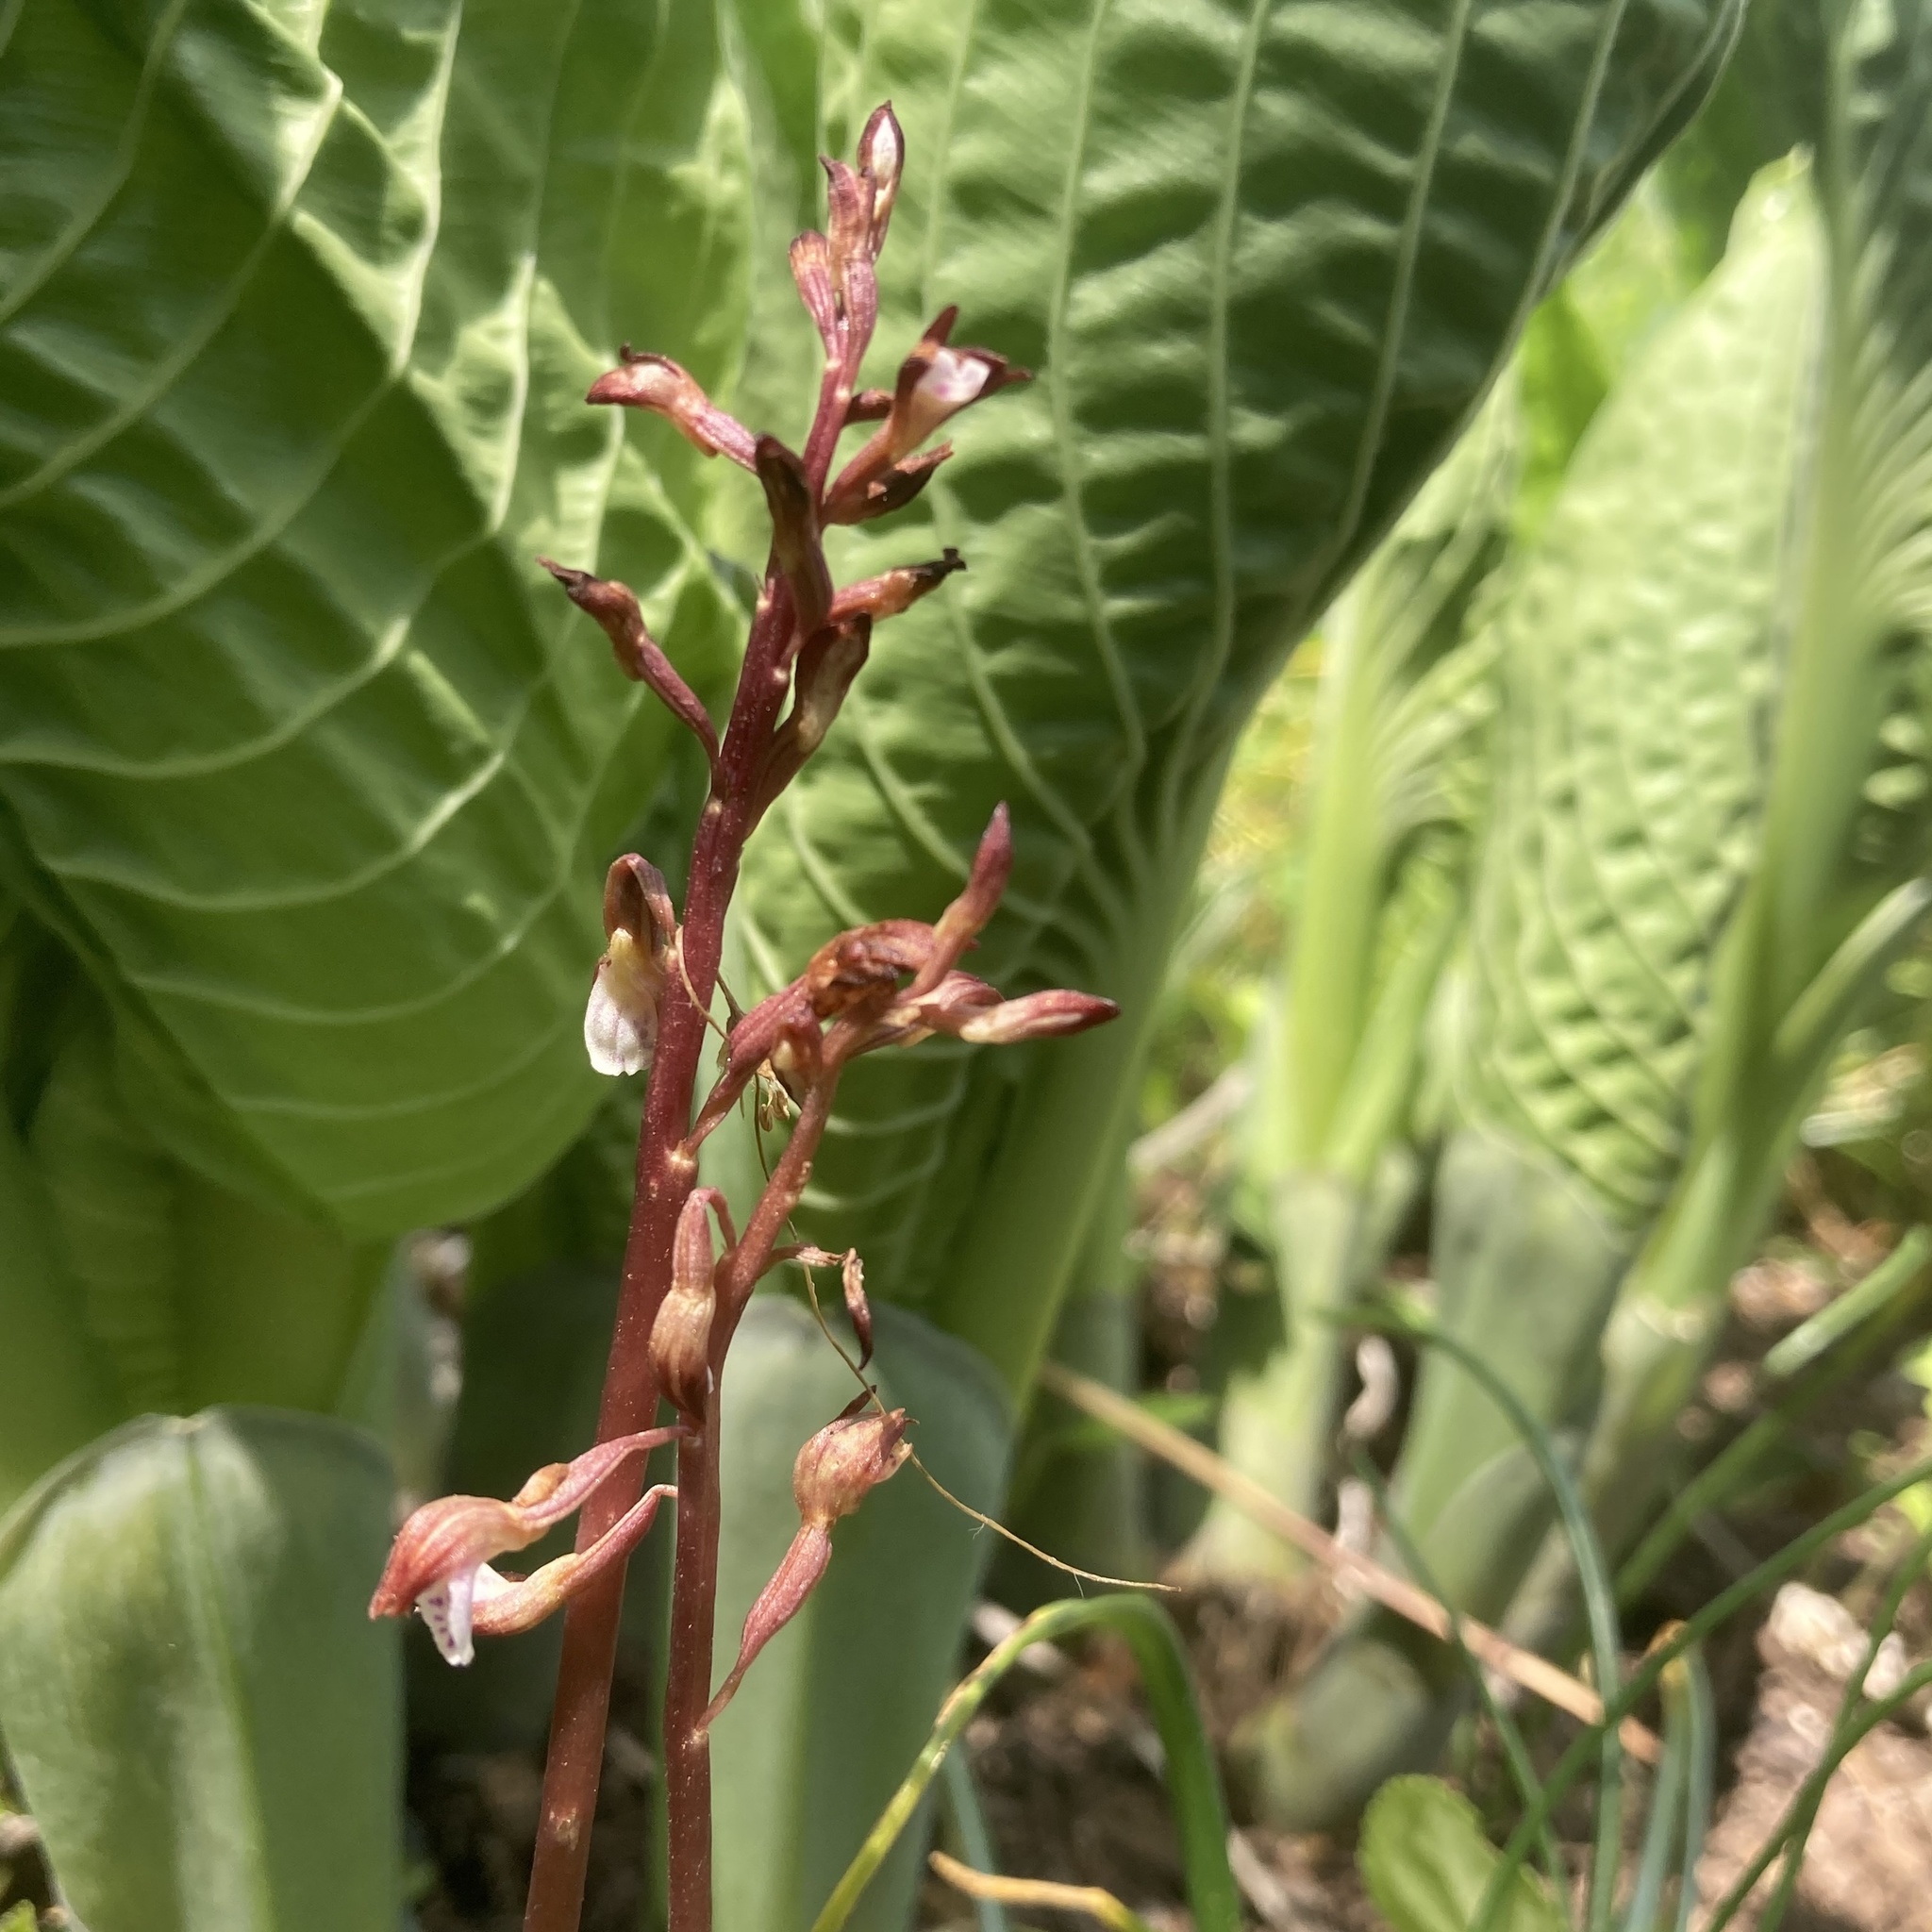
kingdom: Plantae
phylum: Tracheophyta
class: Liliopsida
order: Asparagales
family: Orchidaceae
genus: Corallorhiza
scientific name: Corallorhiza wisteriana
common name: Spring coralroot
